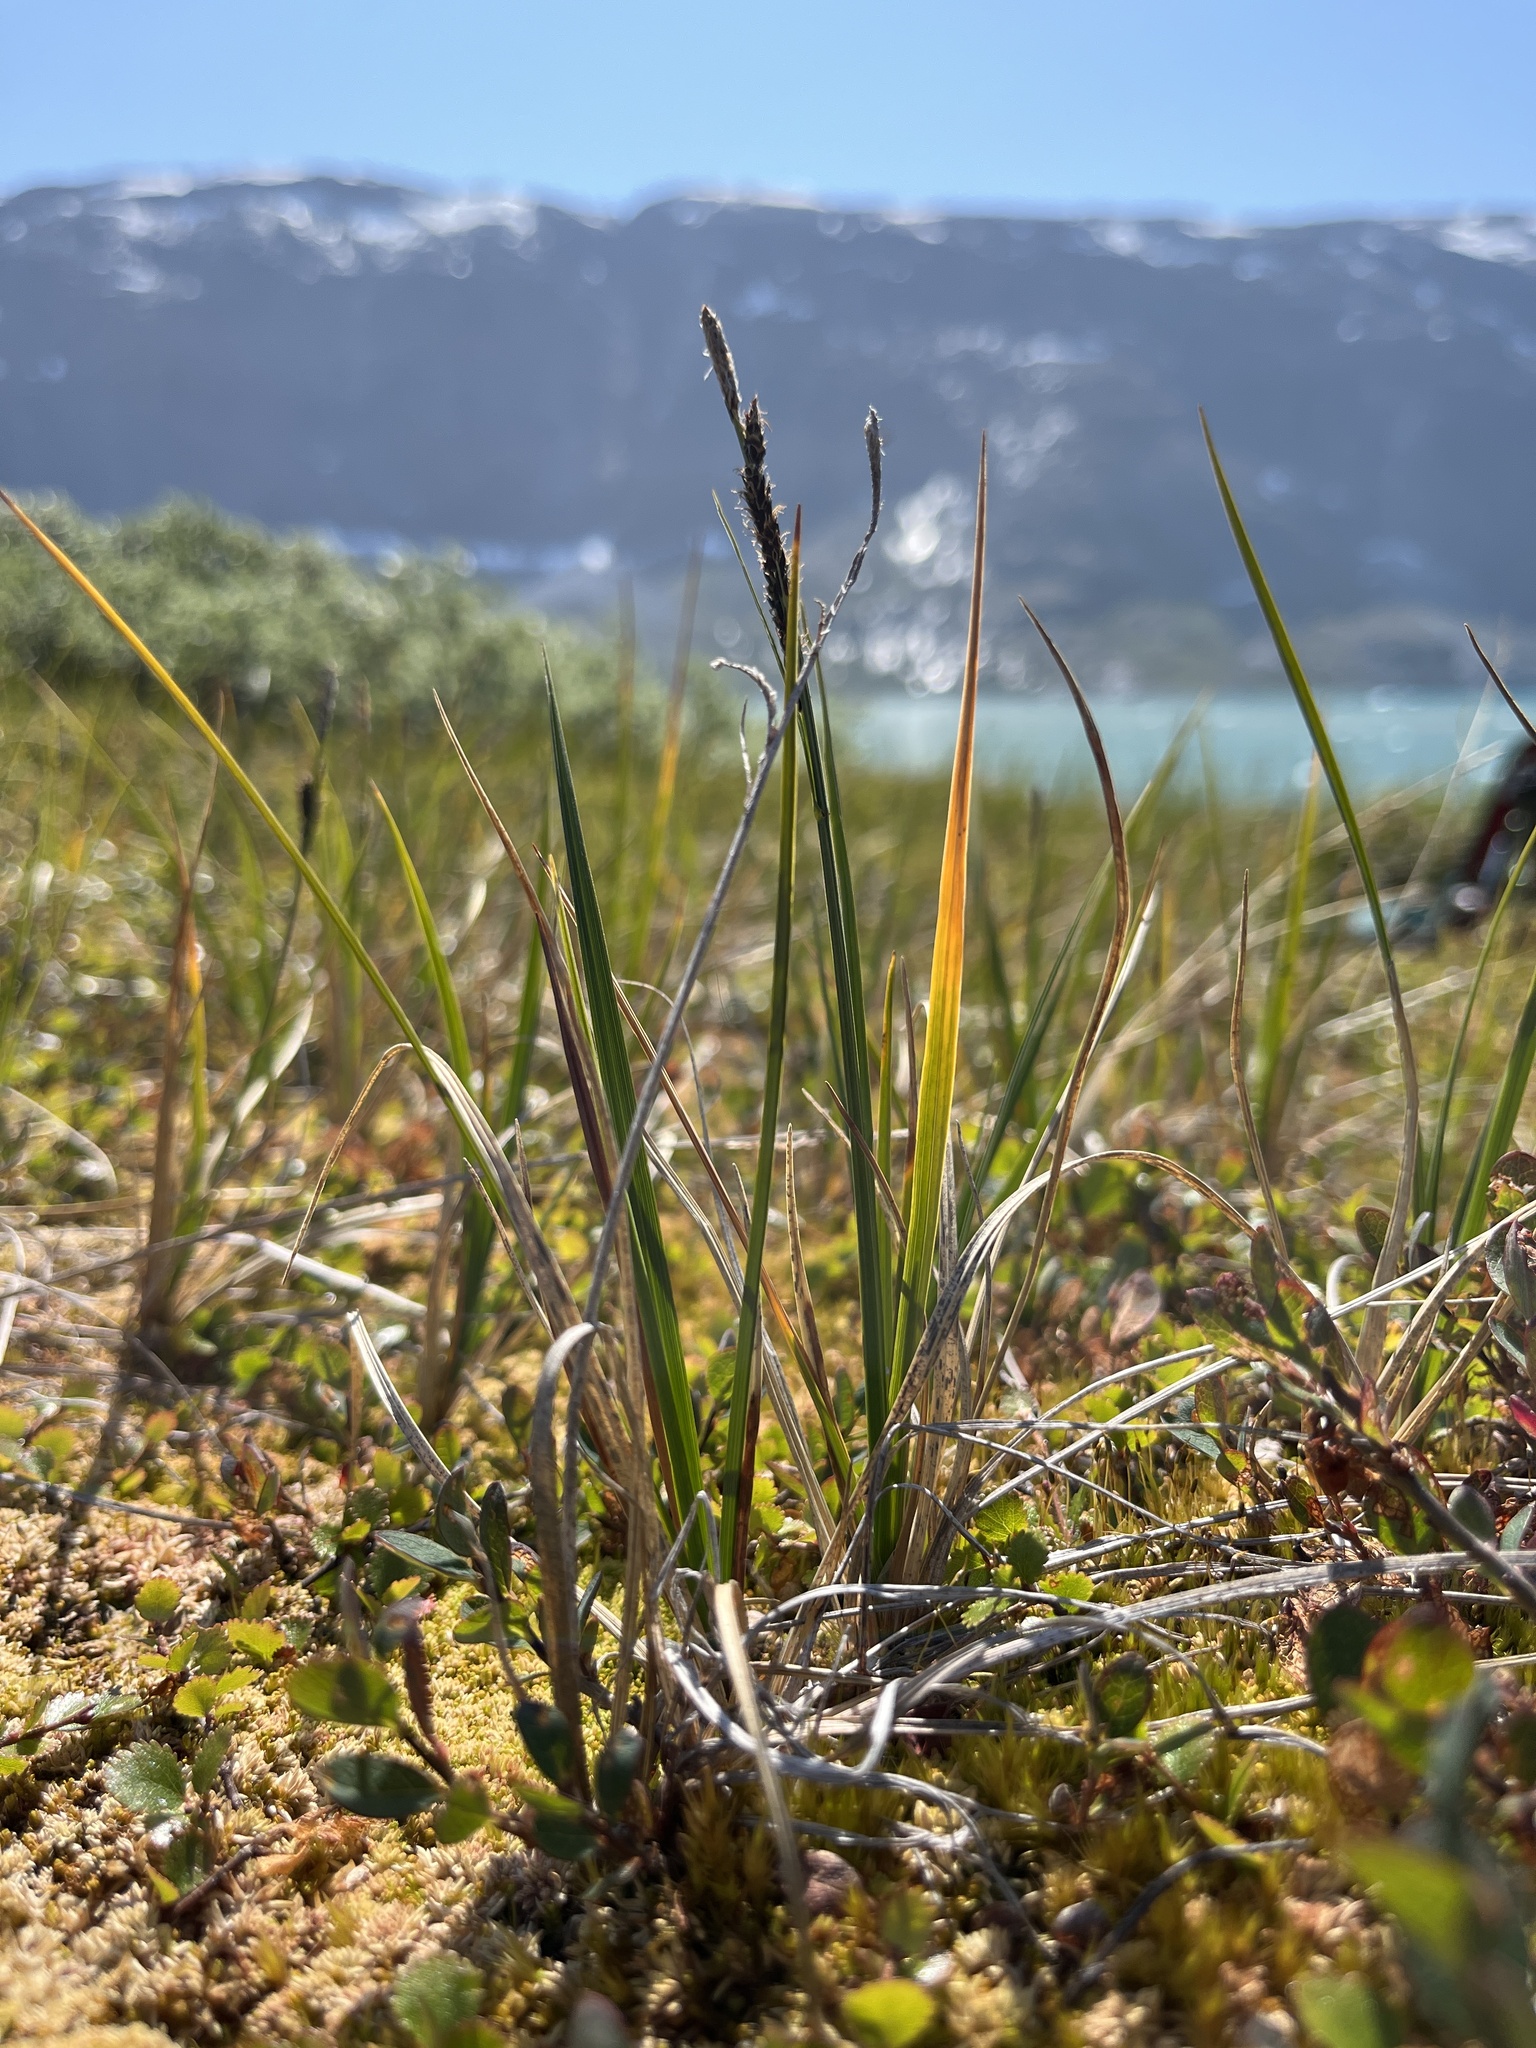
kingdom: Plantae
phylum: Tracheophyta
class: Liliopsida
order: Poales
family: Cyperaceae
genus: Carex
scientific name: Carex bigelowii
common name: Stiff sedge
